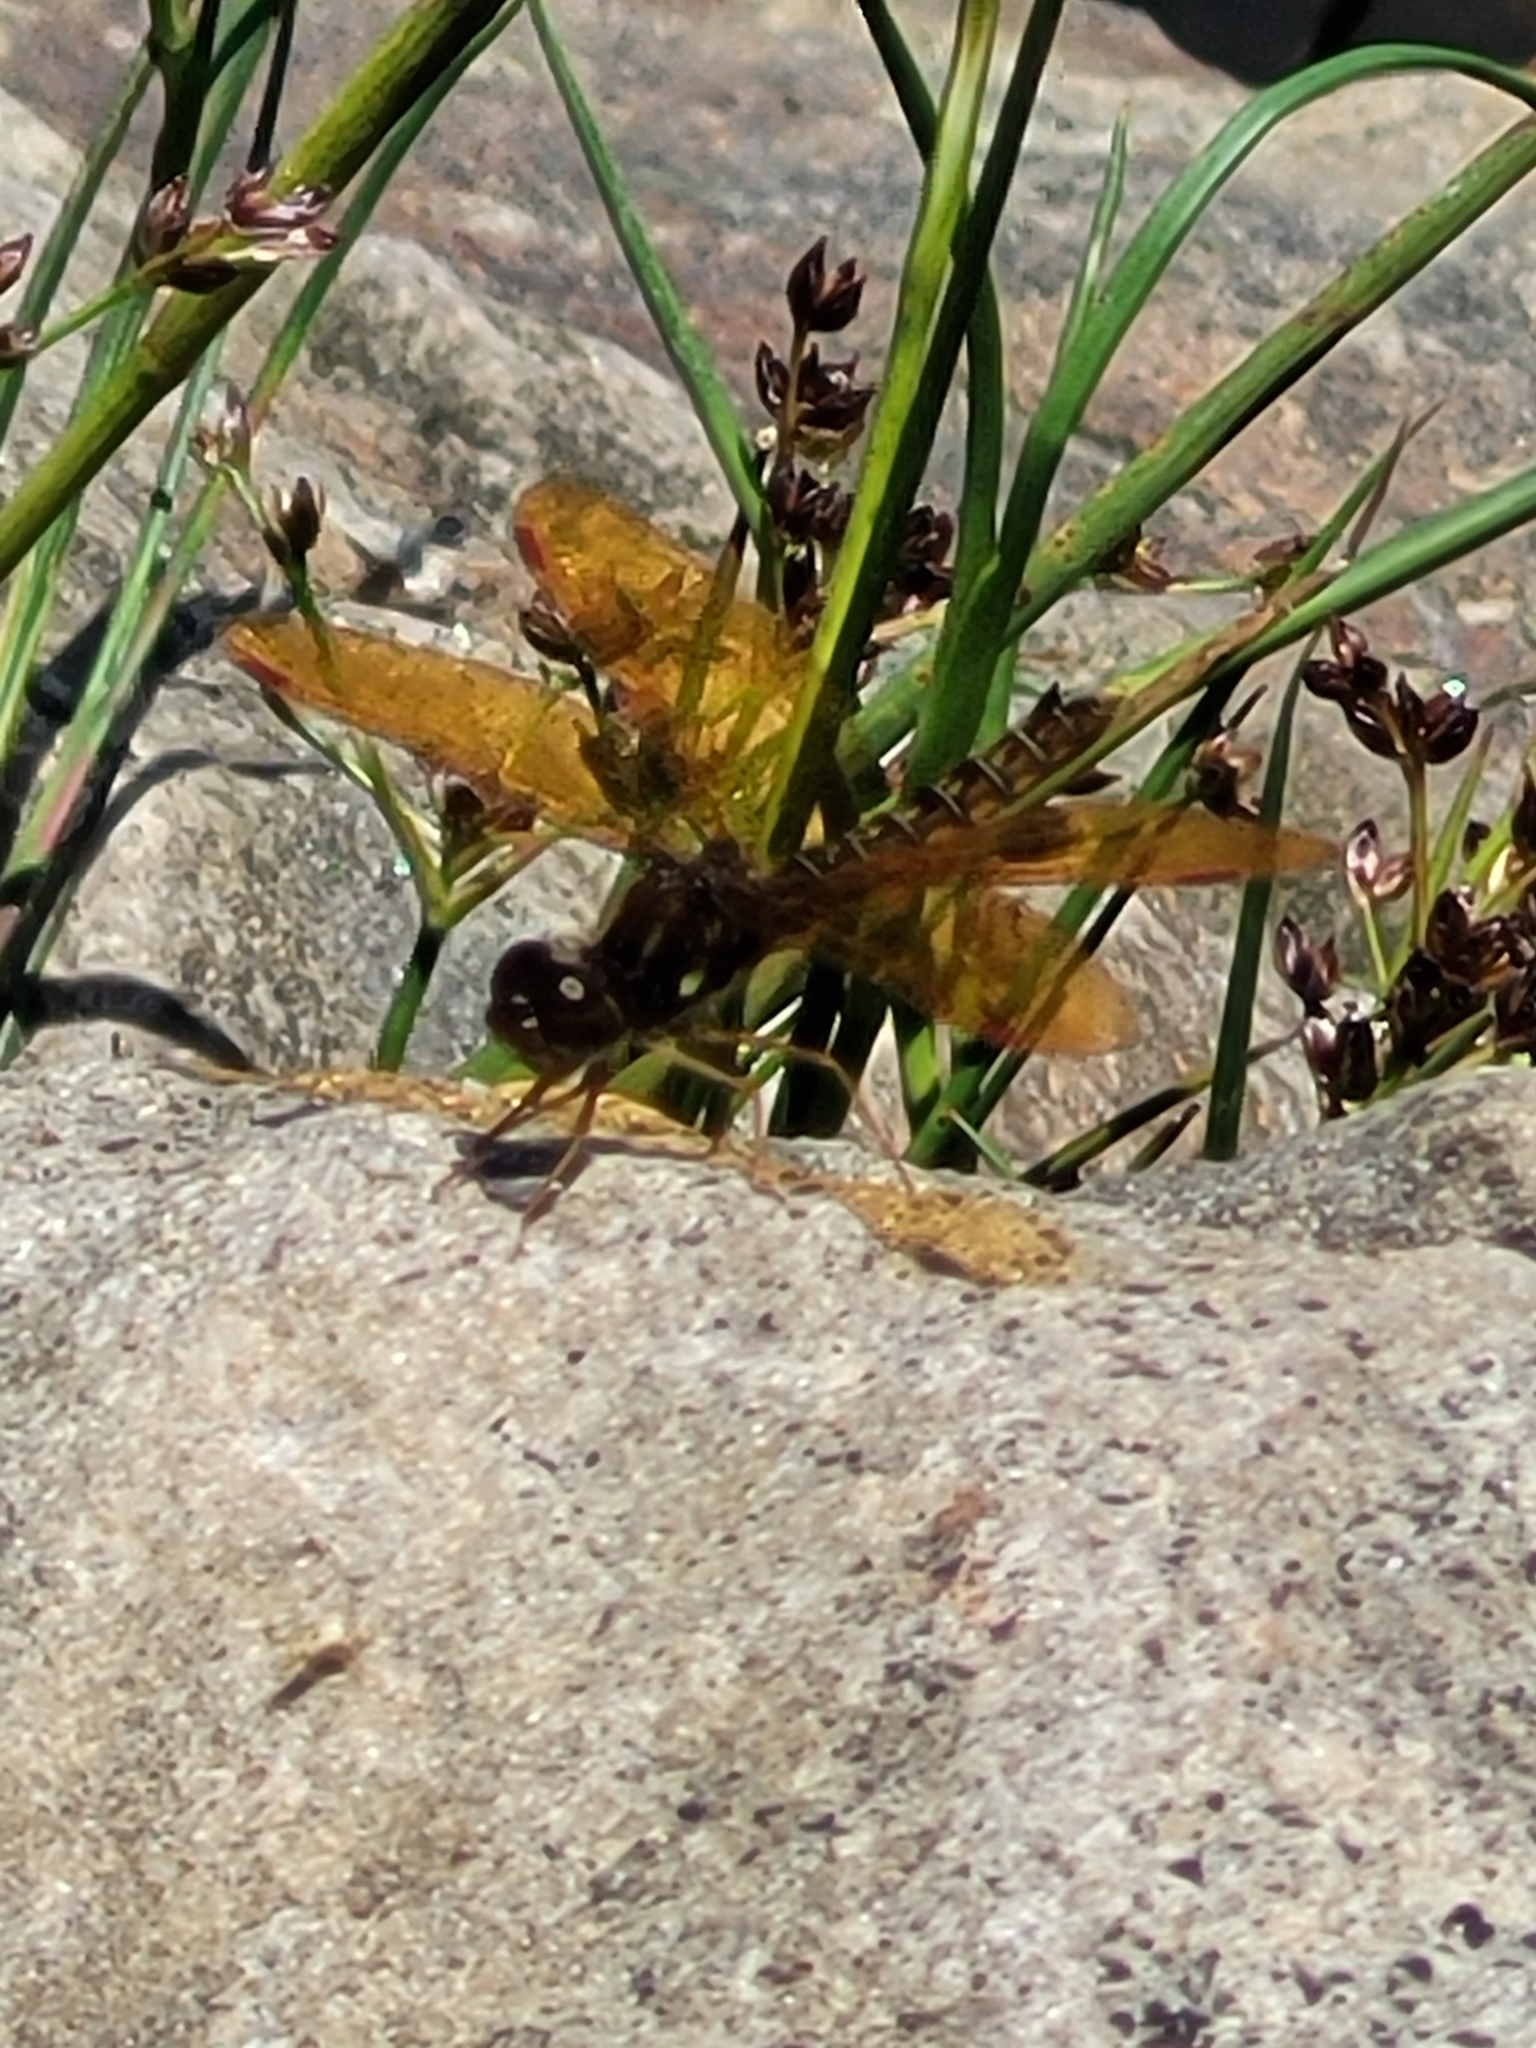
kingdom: Animalia
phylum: Arthropoda
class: Insecta
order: Odonata
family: Libellulidae
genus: Perithemis
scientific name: Perithemis tenera
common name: Eastern amberwing
